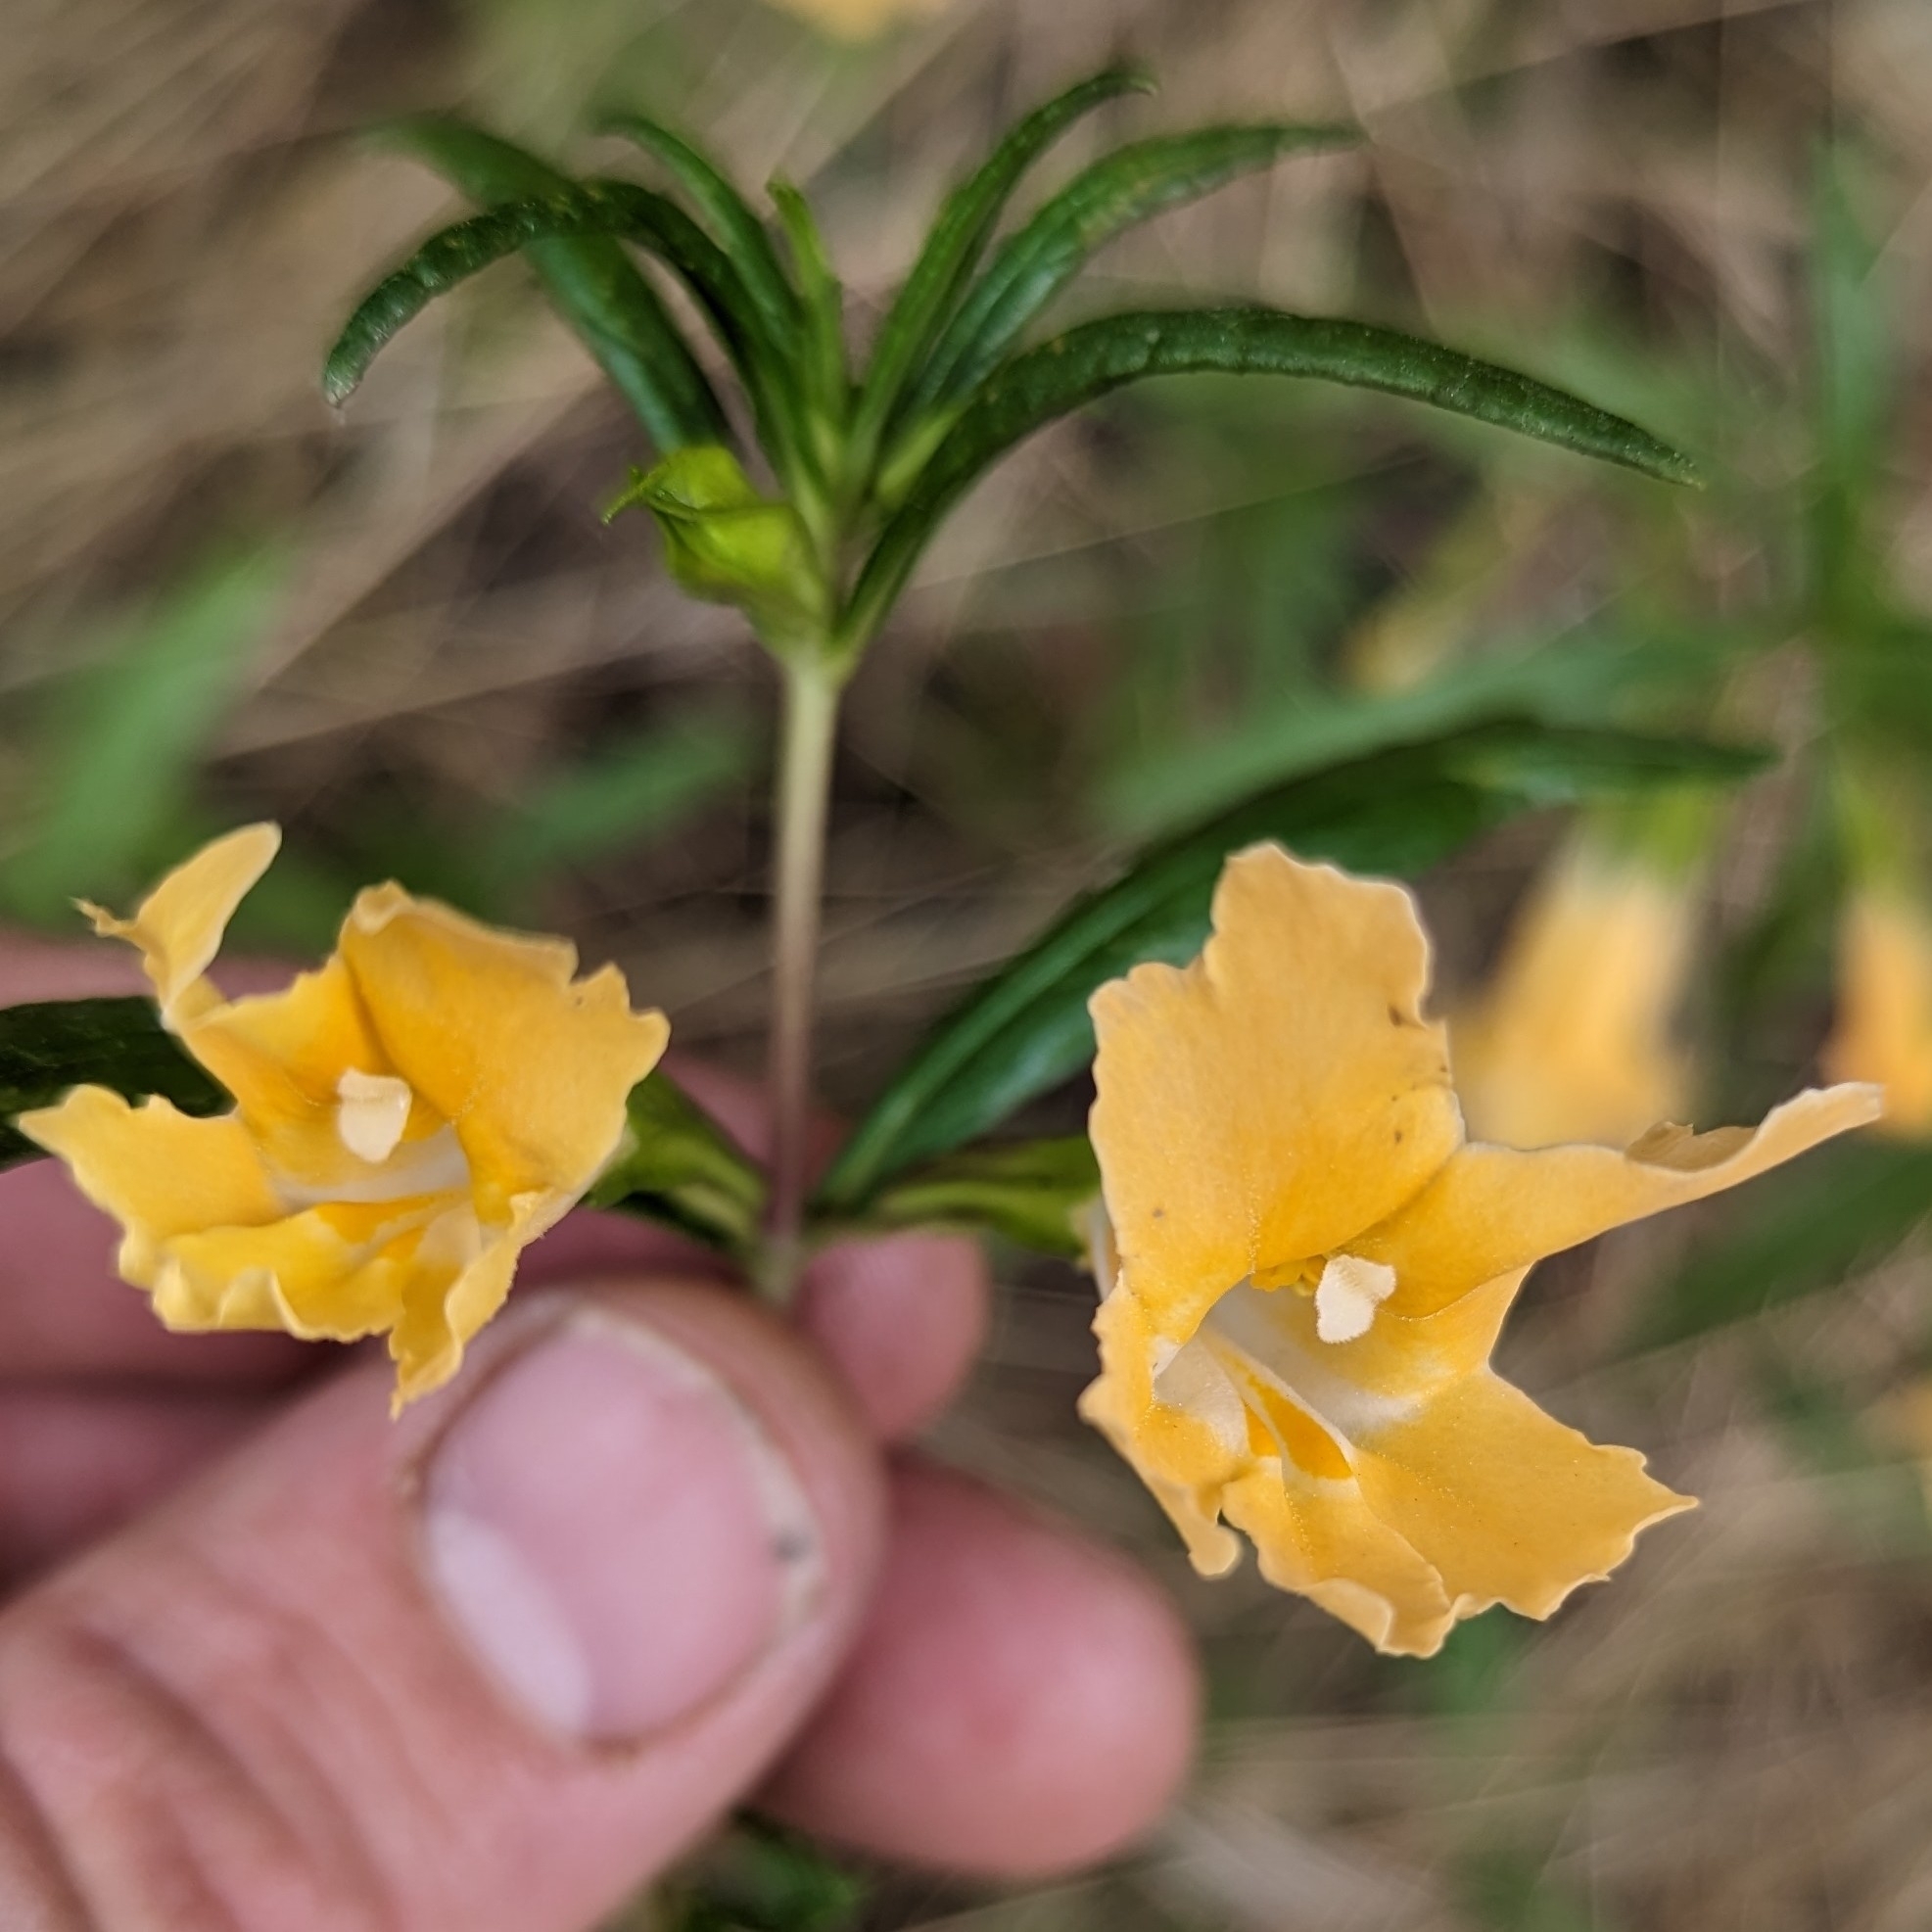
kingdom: Plantae
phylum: Tracheophyta
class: Magnoliopsida
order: Lamiales
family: Phrymaceae
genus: Diplacus
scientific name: Diplacus australis
